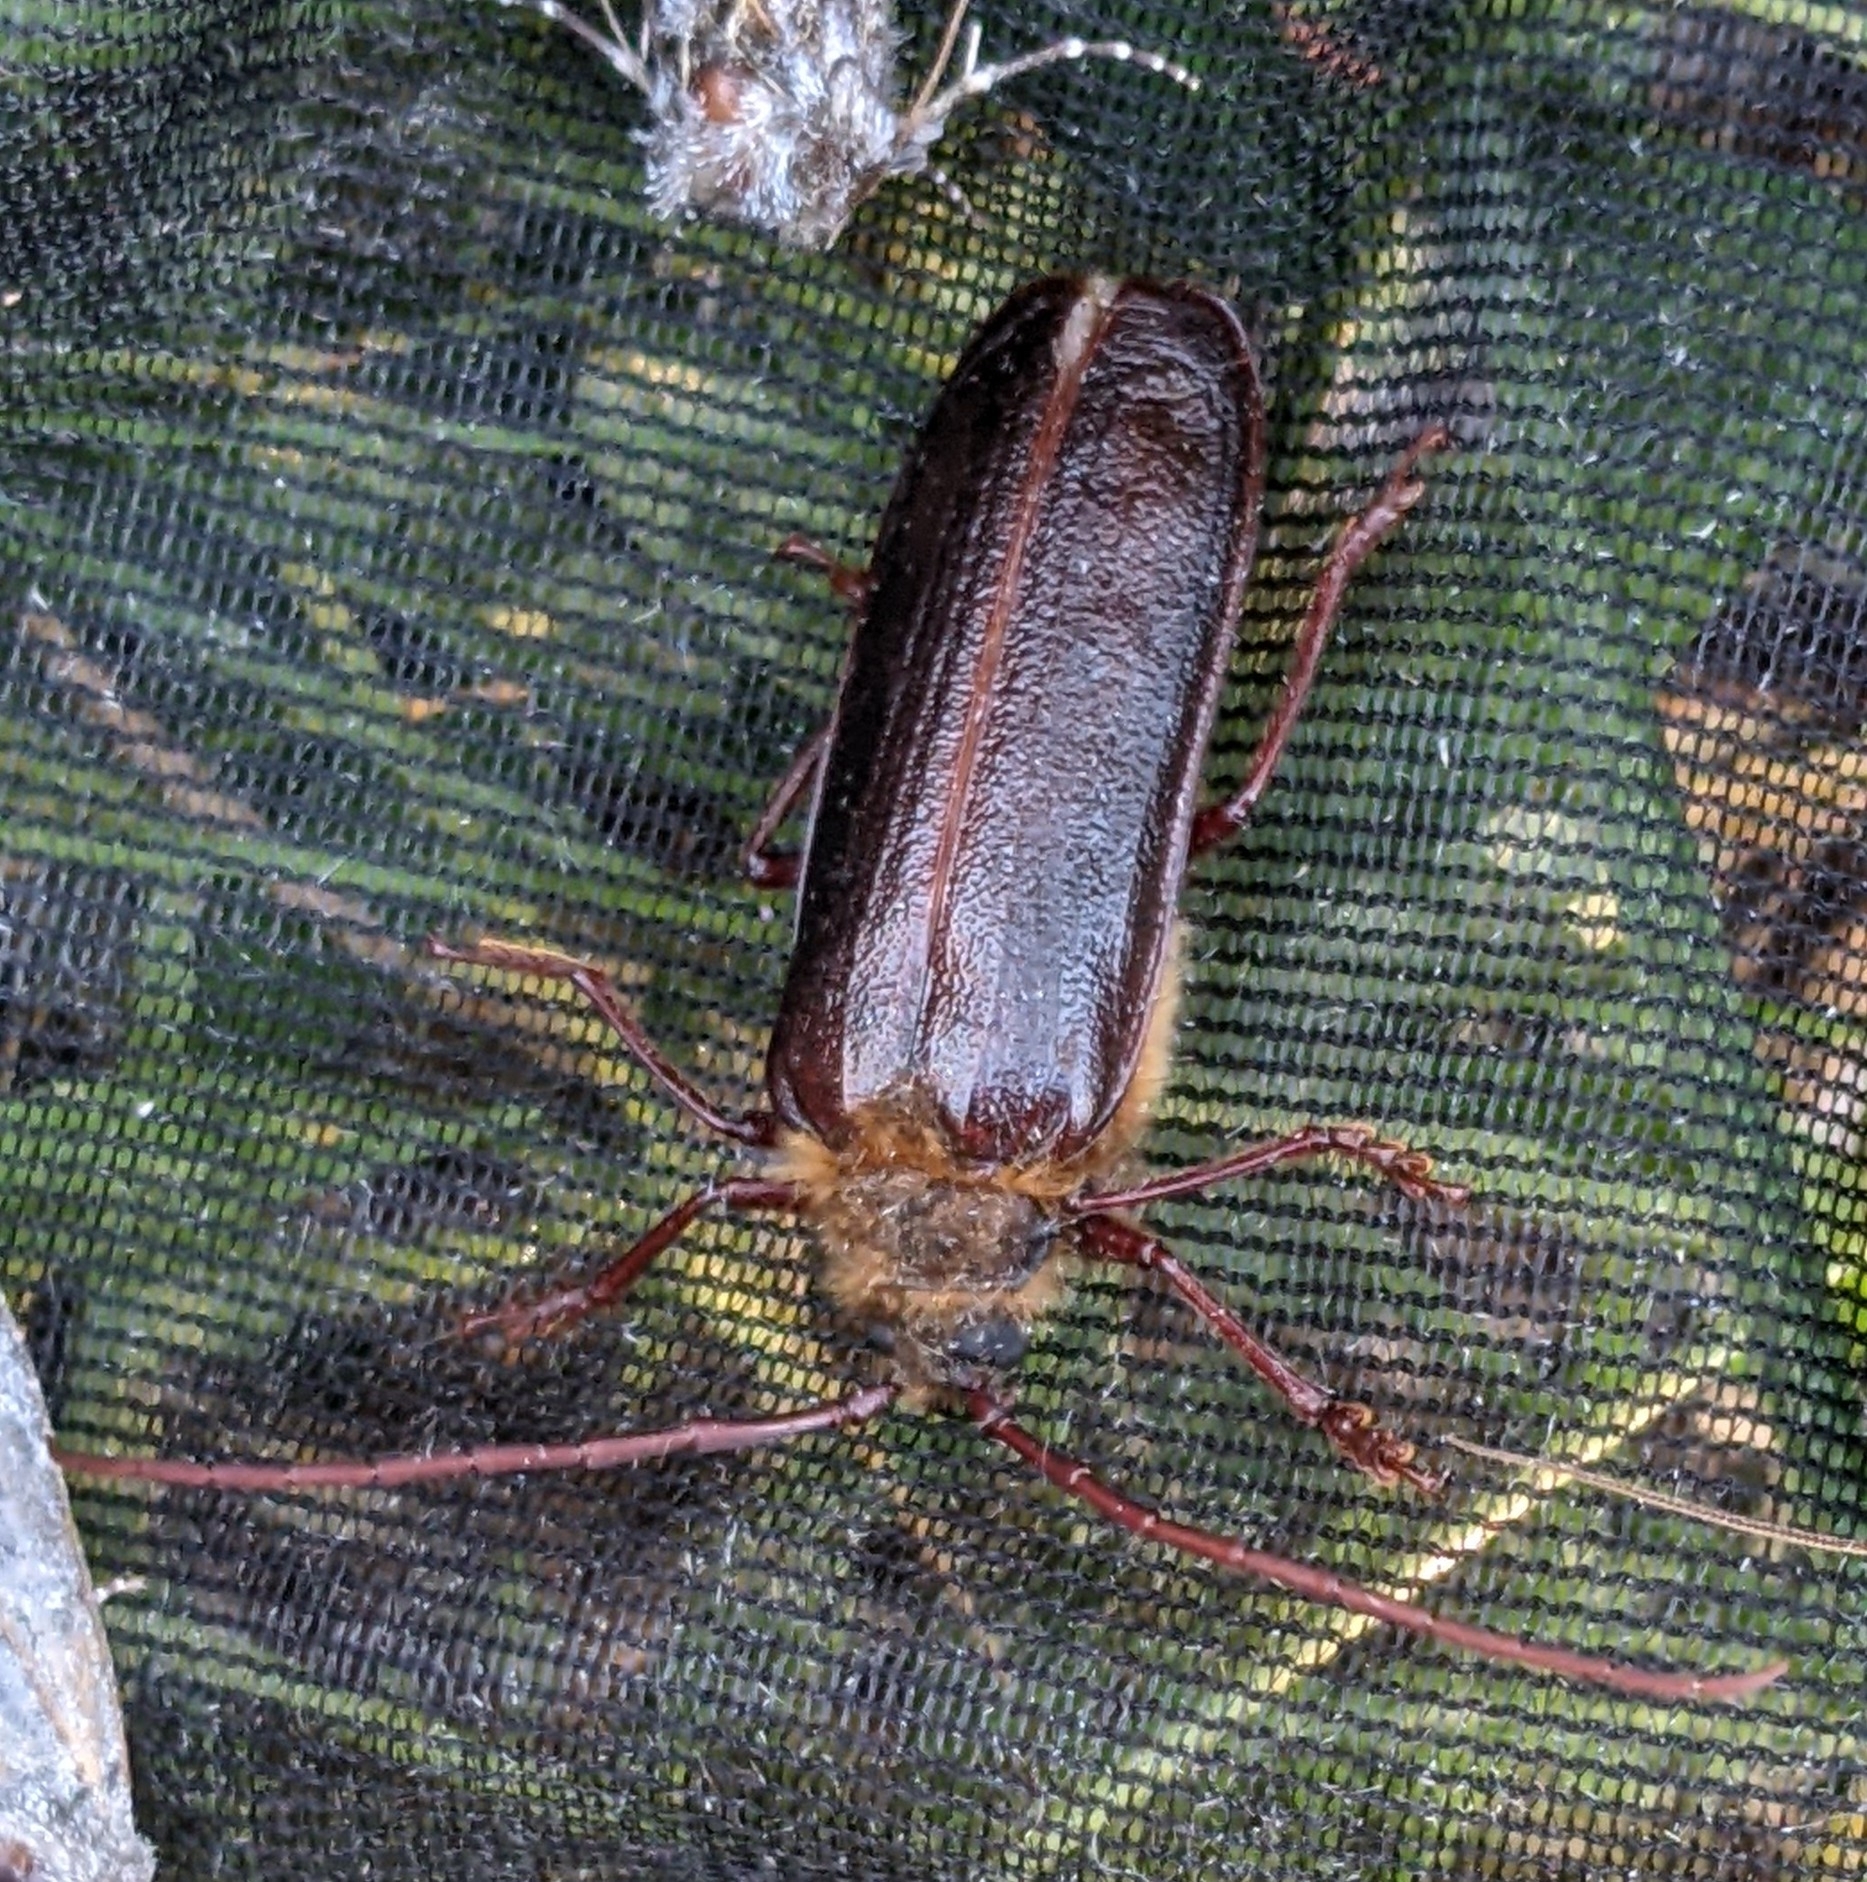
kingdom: Animalia
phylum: Arthropoda
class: Insecta
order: Coleoptera
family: Cerambycidae
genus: Tragosoma
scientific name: Tragosoma harrisii
